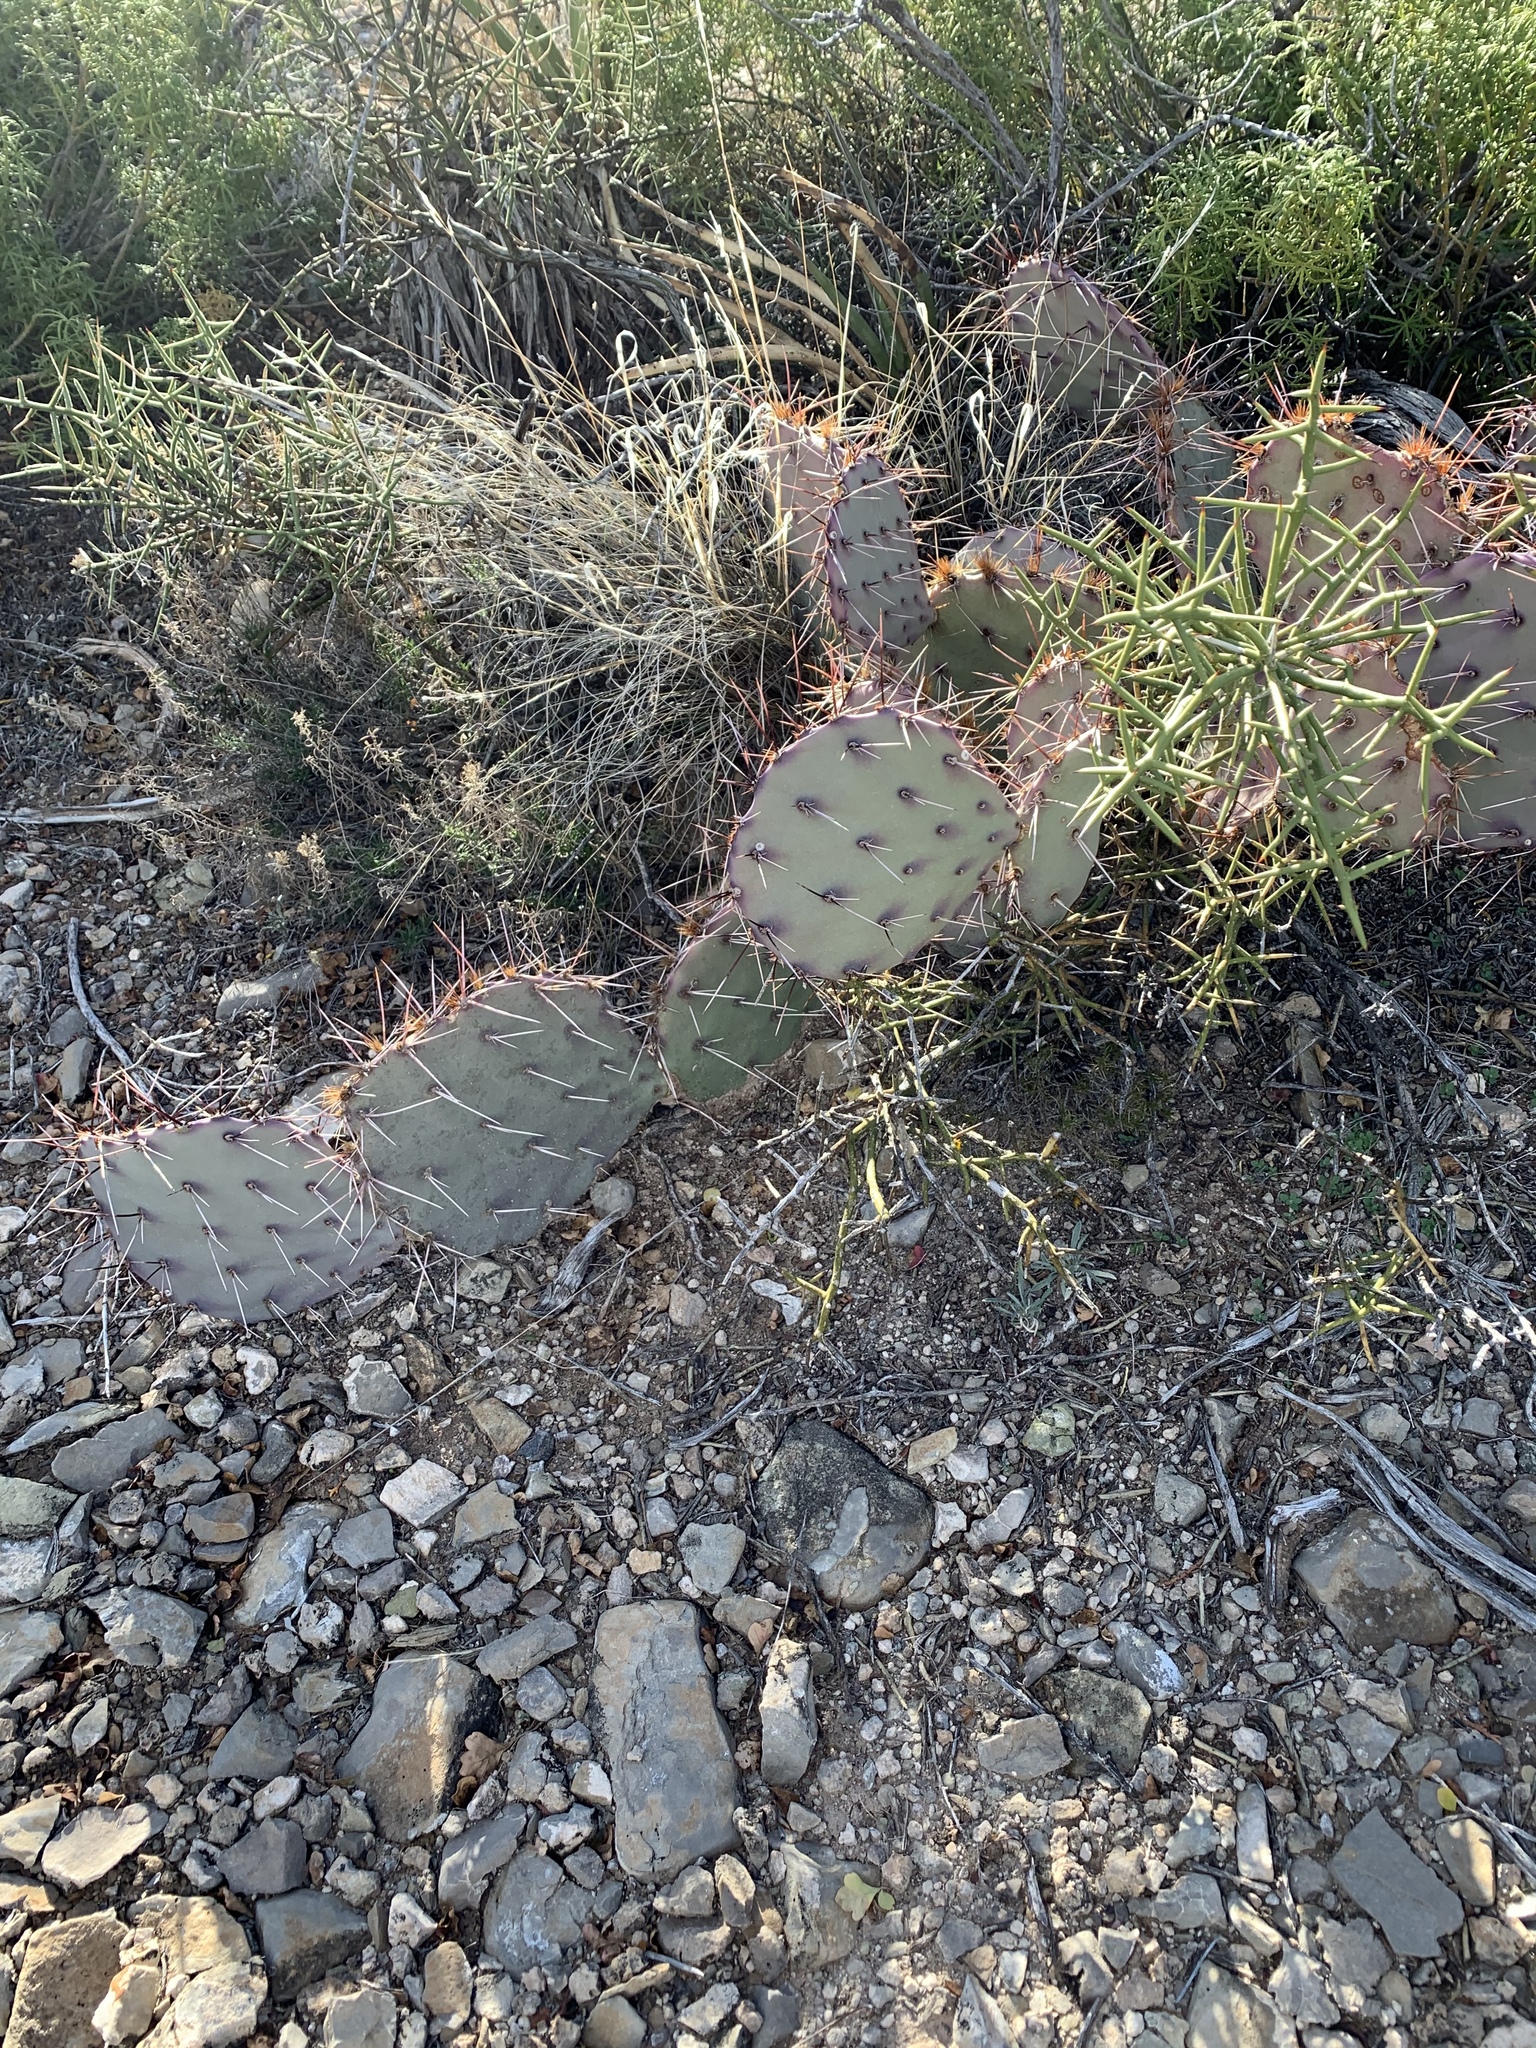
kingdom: Plantae
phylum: Tracheophyta
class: Magnoliopsida
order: Caryophyllales
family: Cactaceae
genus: Opuntia
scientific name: Opuntia macrocentra
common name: Purple prickly-pear
